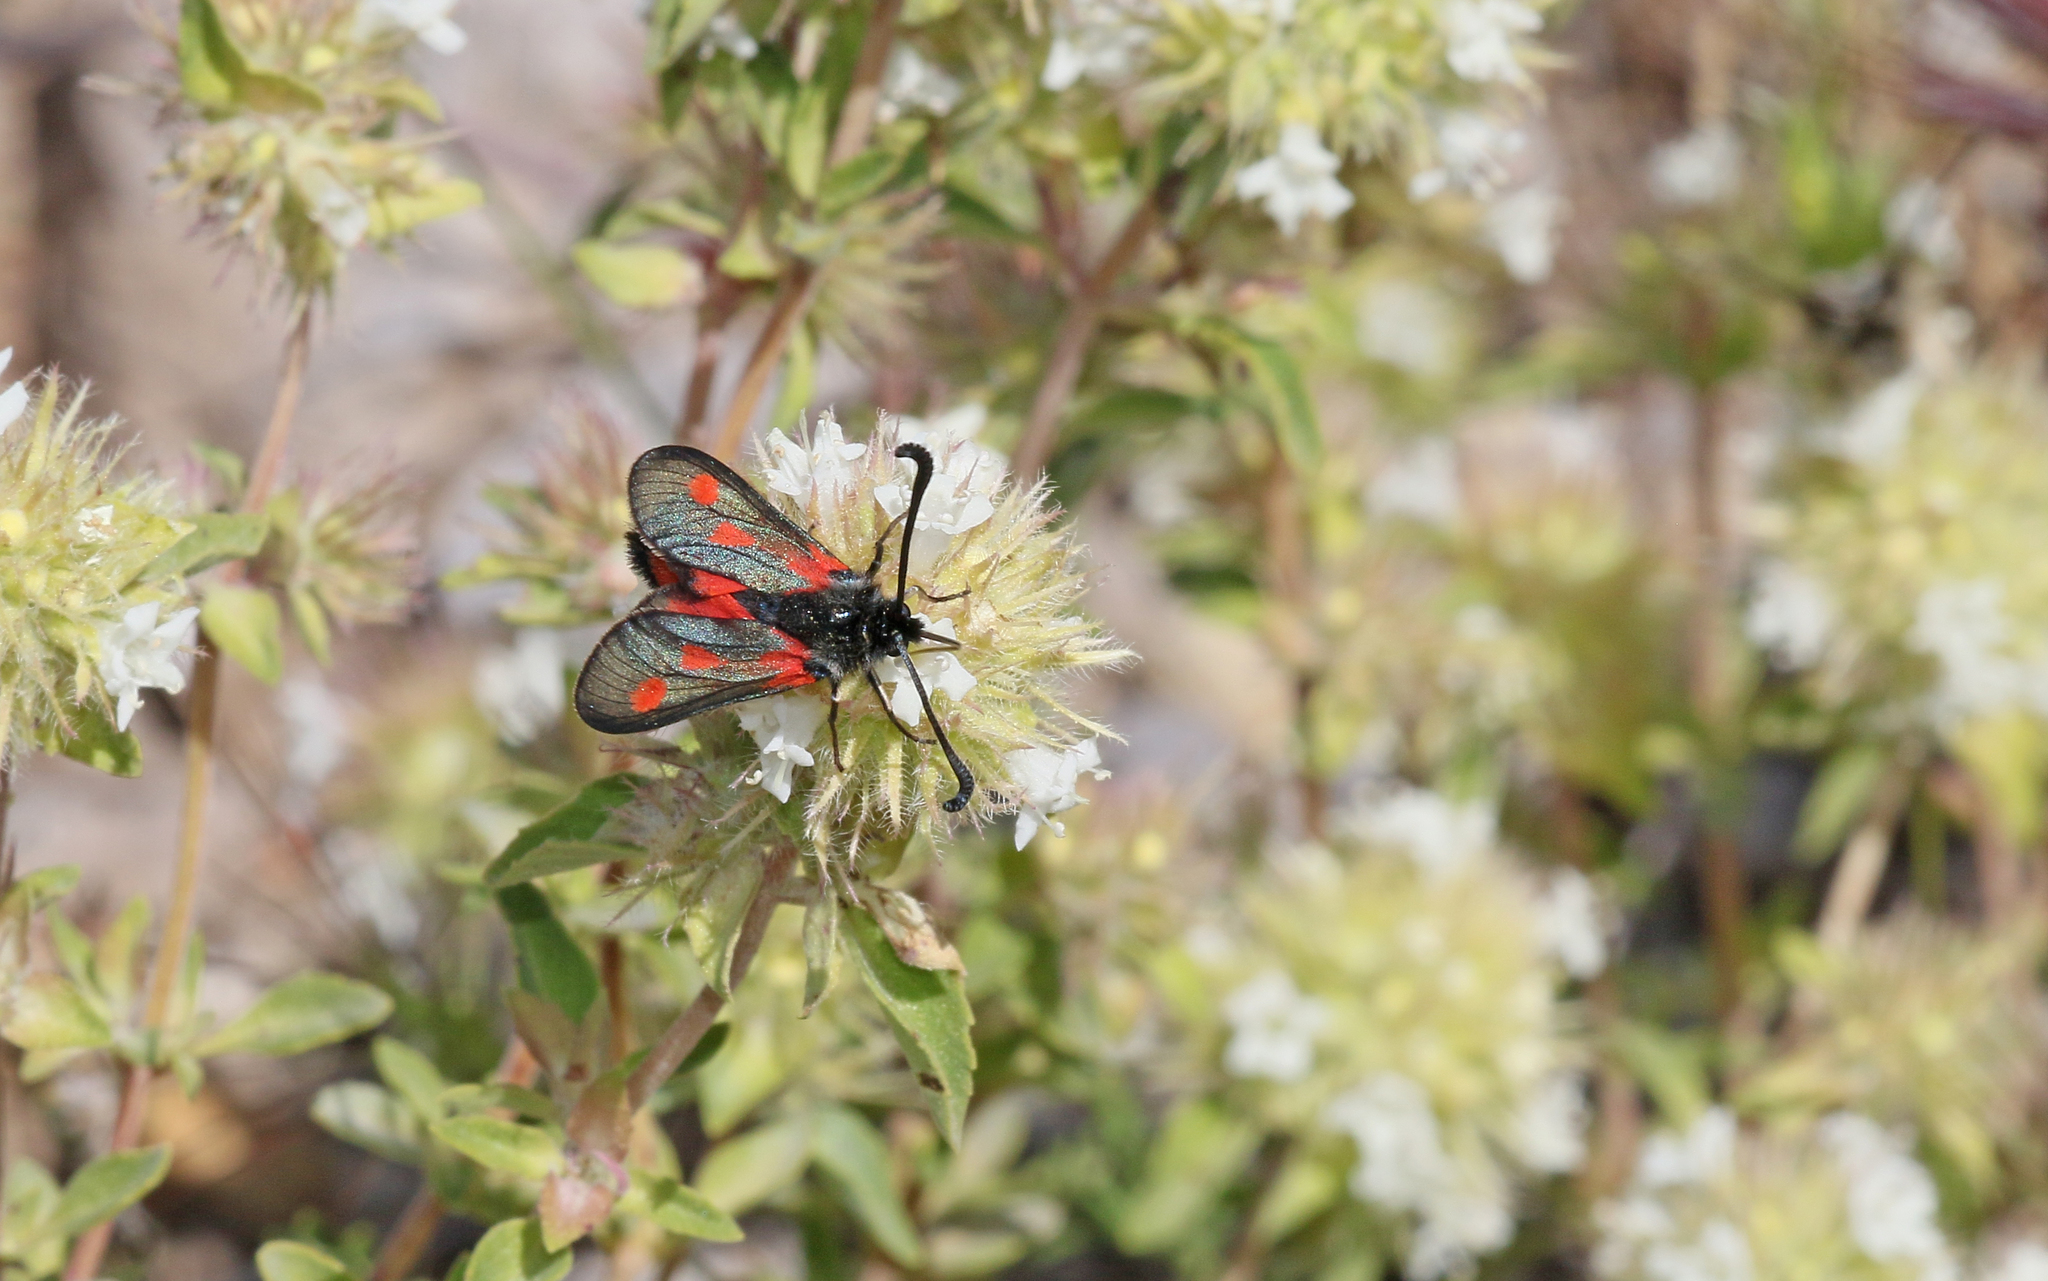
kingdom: Animalia
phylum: Arthropoda
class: Insecta
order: Lepidoptera
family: Zygaenidae
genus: Zygaena
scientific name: Zygaena sarpedon
